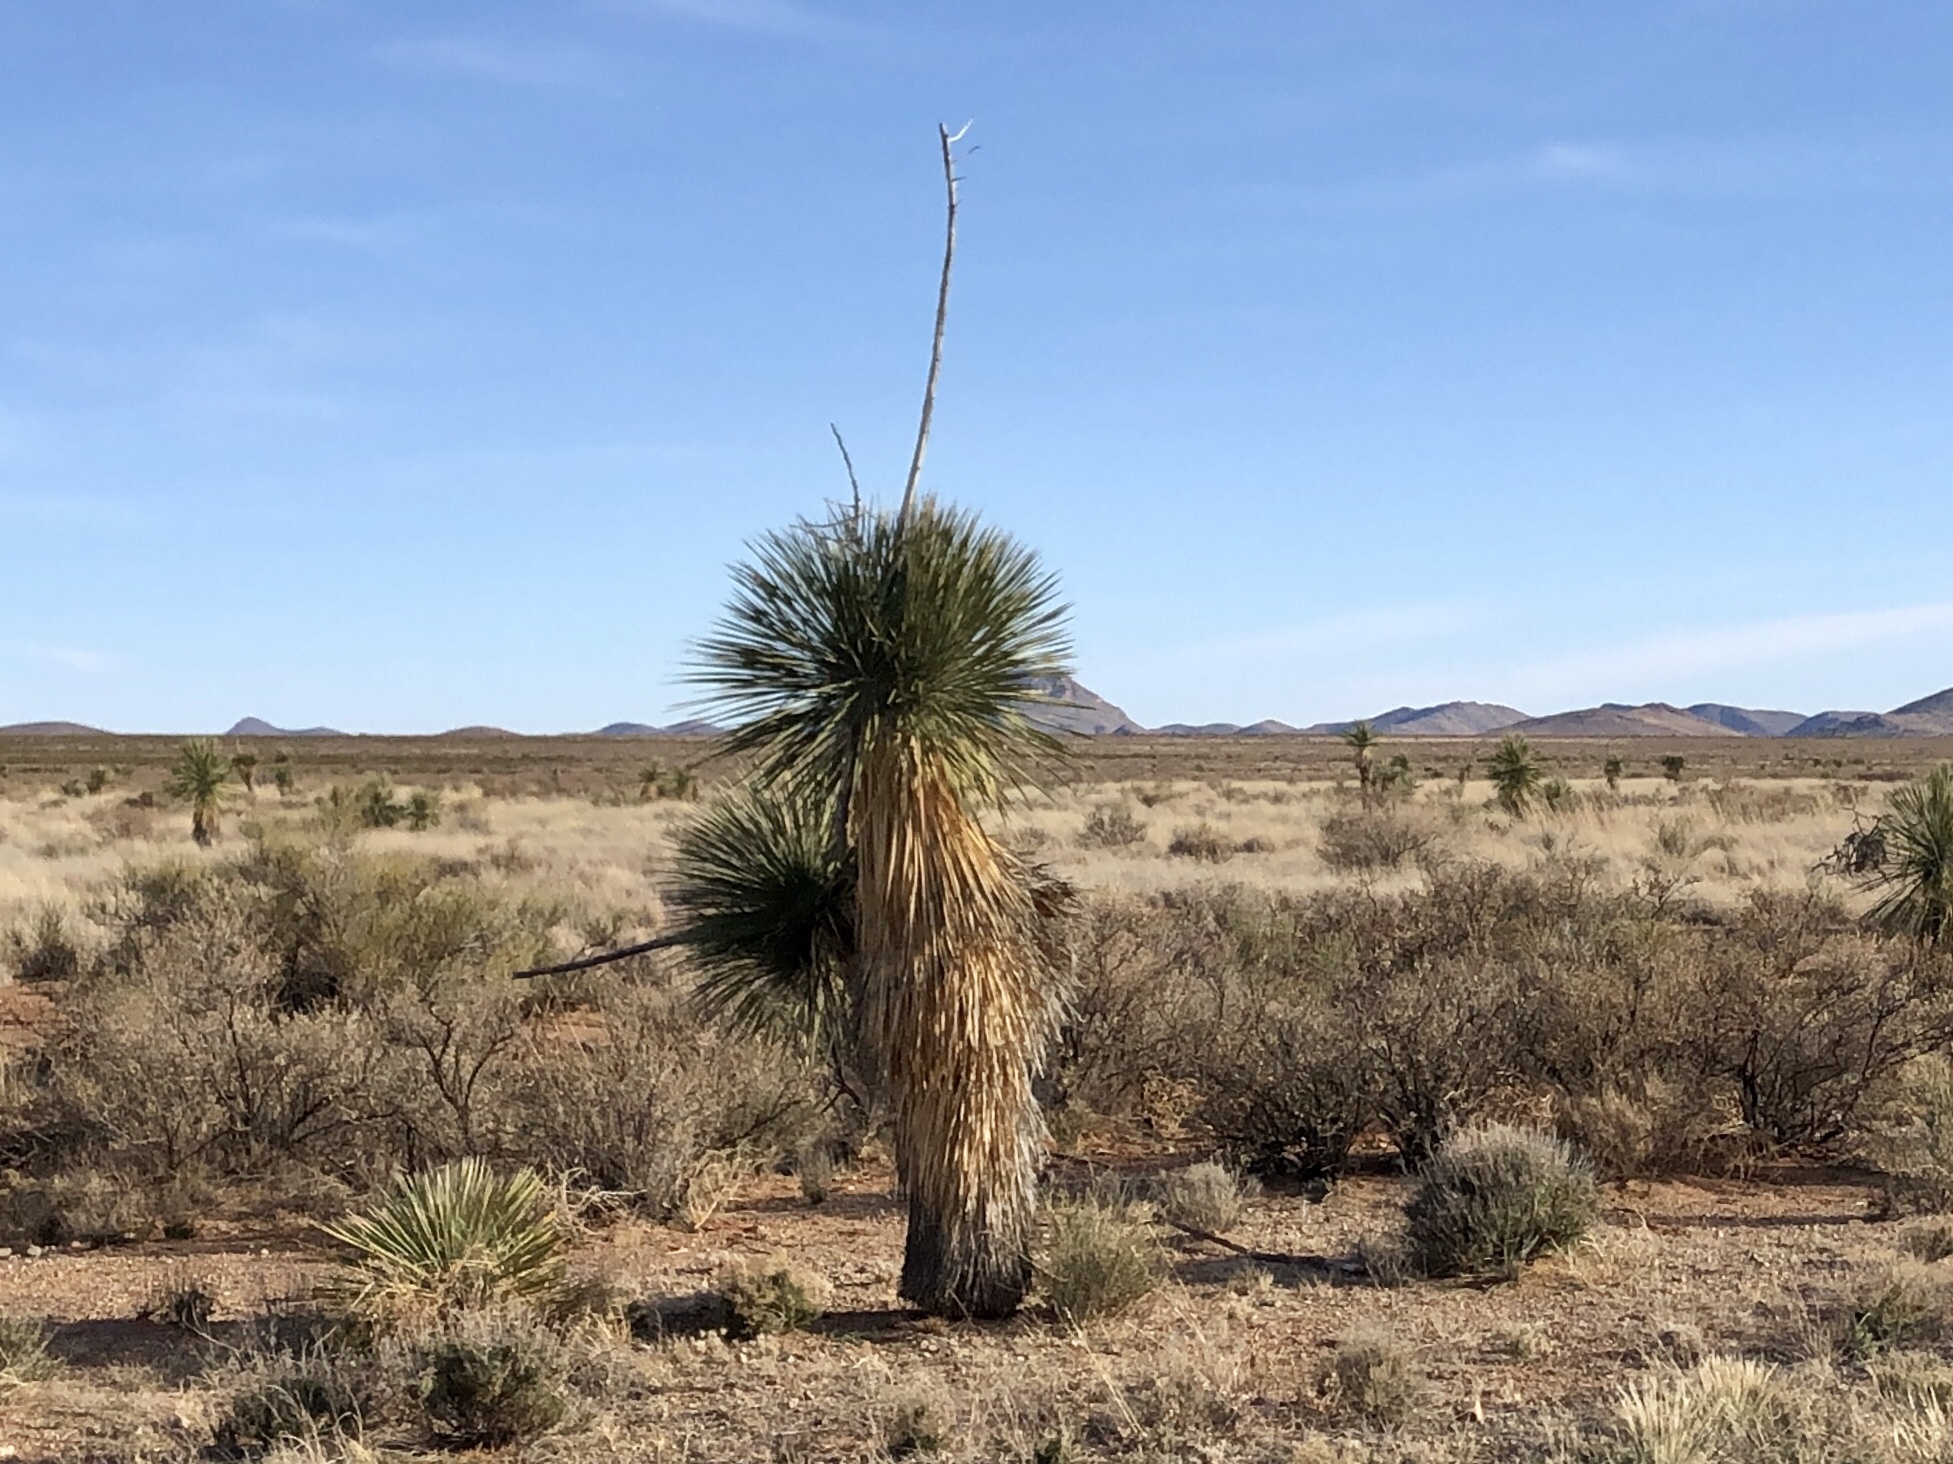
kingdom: Plantae
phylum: Tracheophyta
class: Liliopsida
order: Asparagales
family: Asparagaceae
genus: Yucca
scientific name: Yucca elata
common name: Palmella
